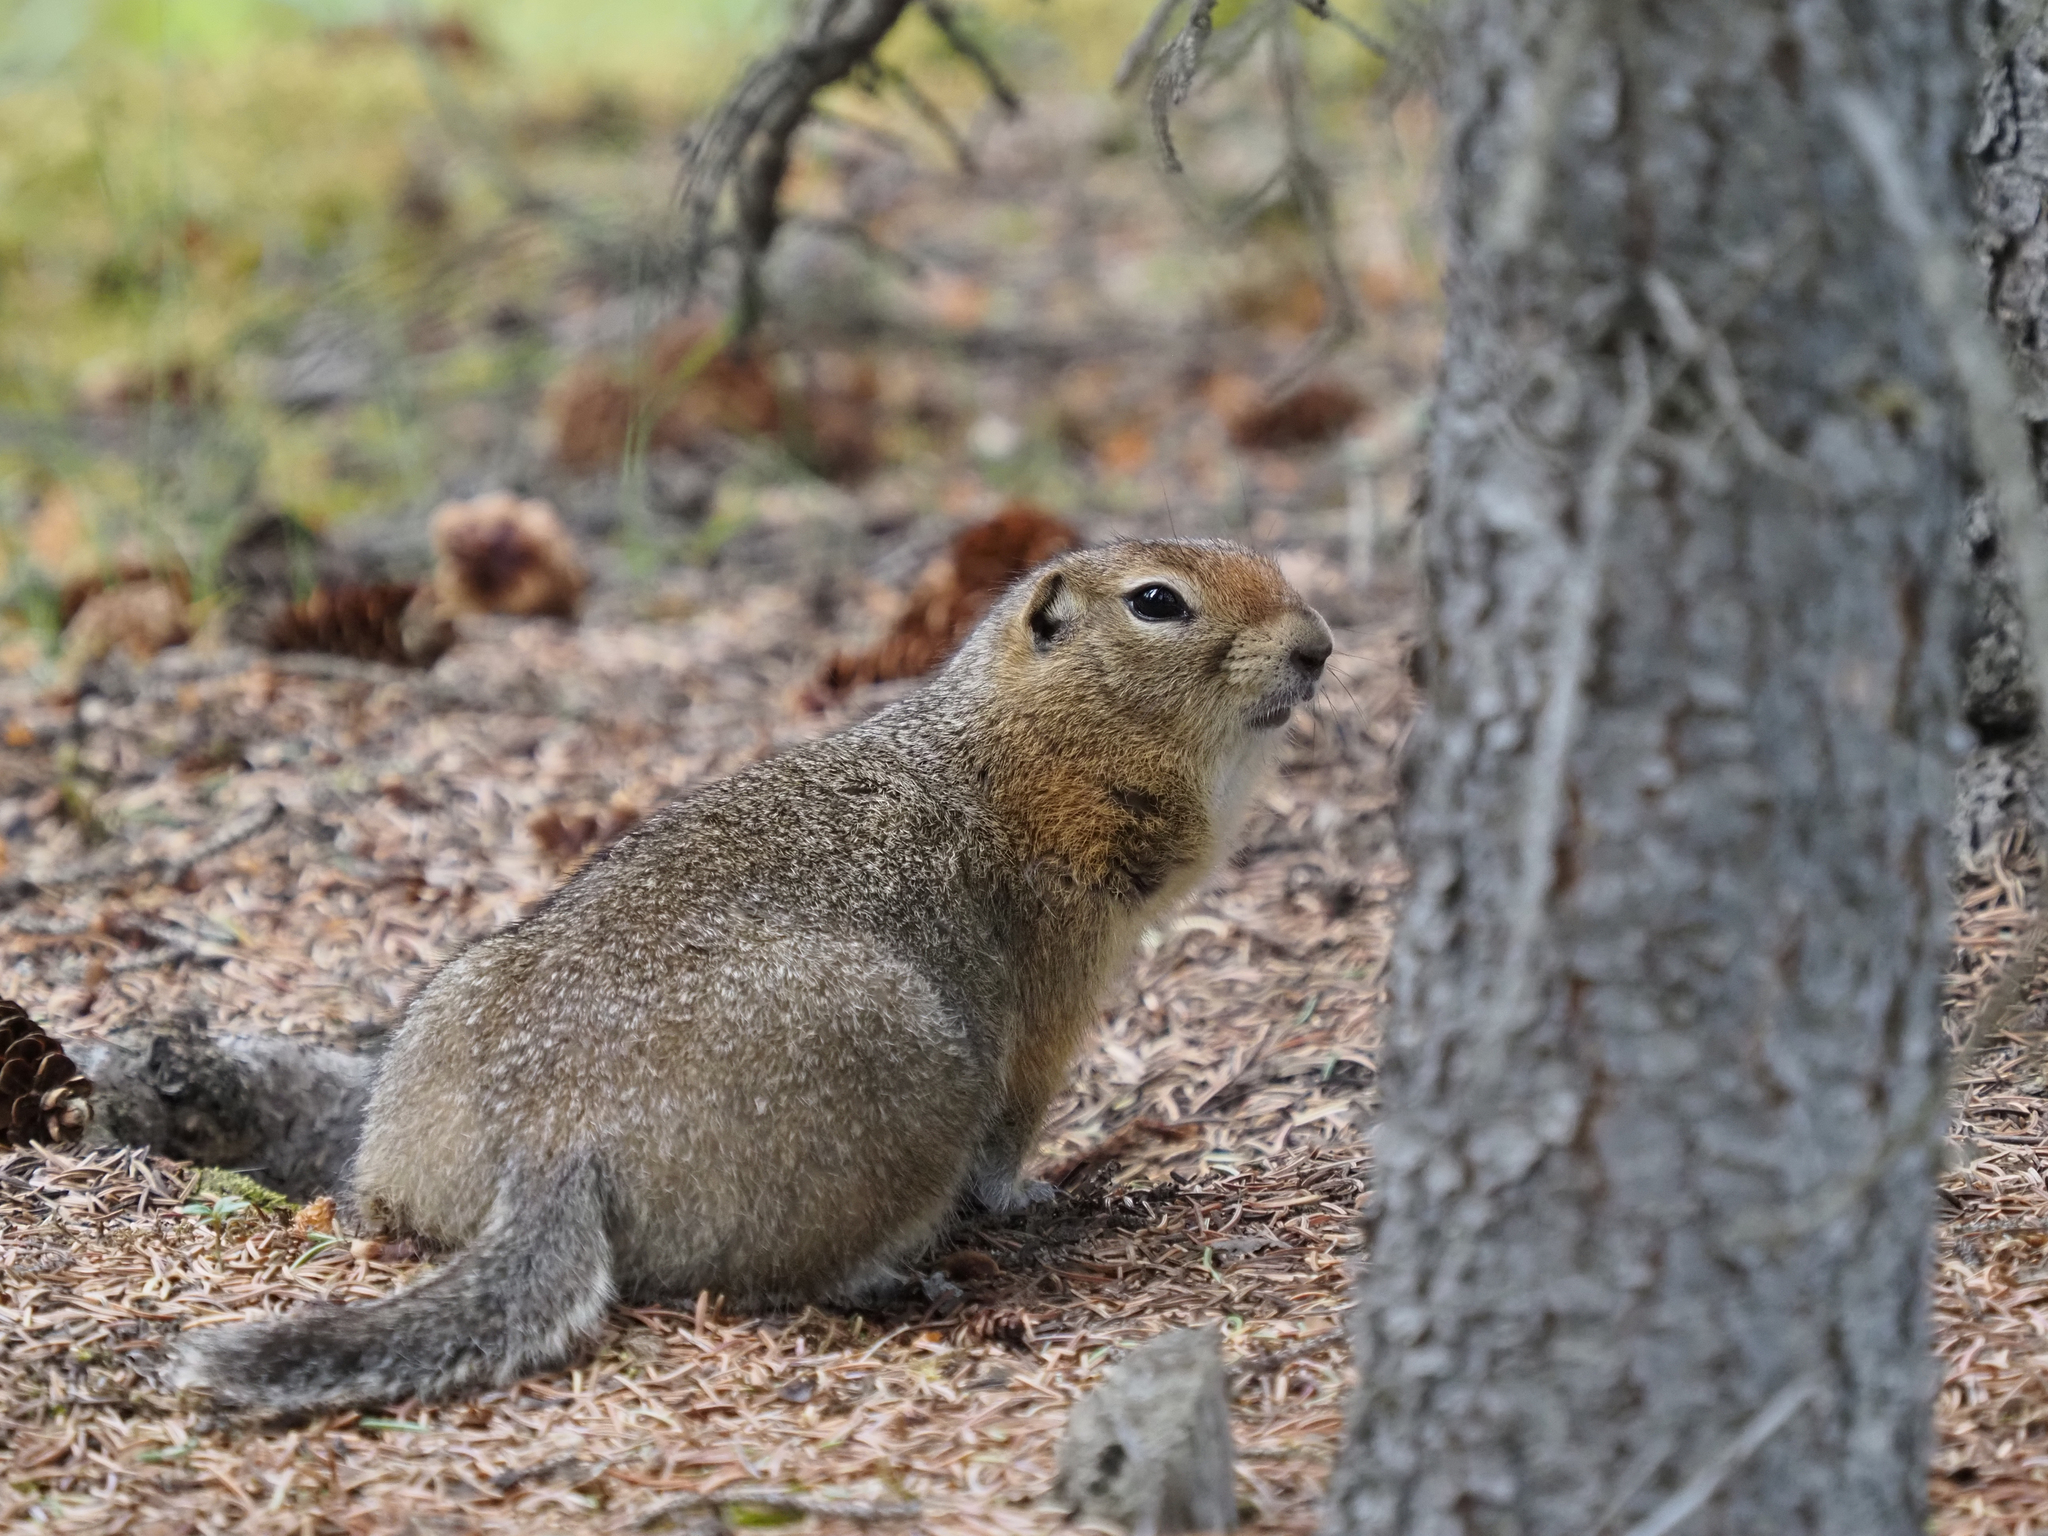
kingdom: Animalia
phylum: Chordata
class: Mammalia
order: Rodentia
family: Sciuridae
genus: Urocitellus
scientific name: Urocitellus parryii
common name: Arctic ground squirrel
